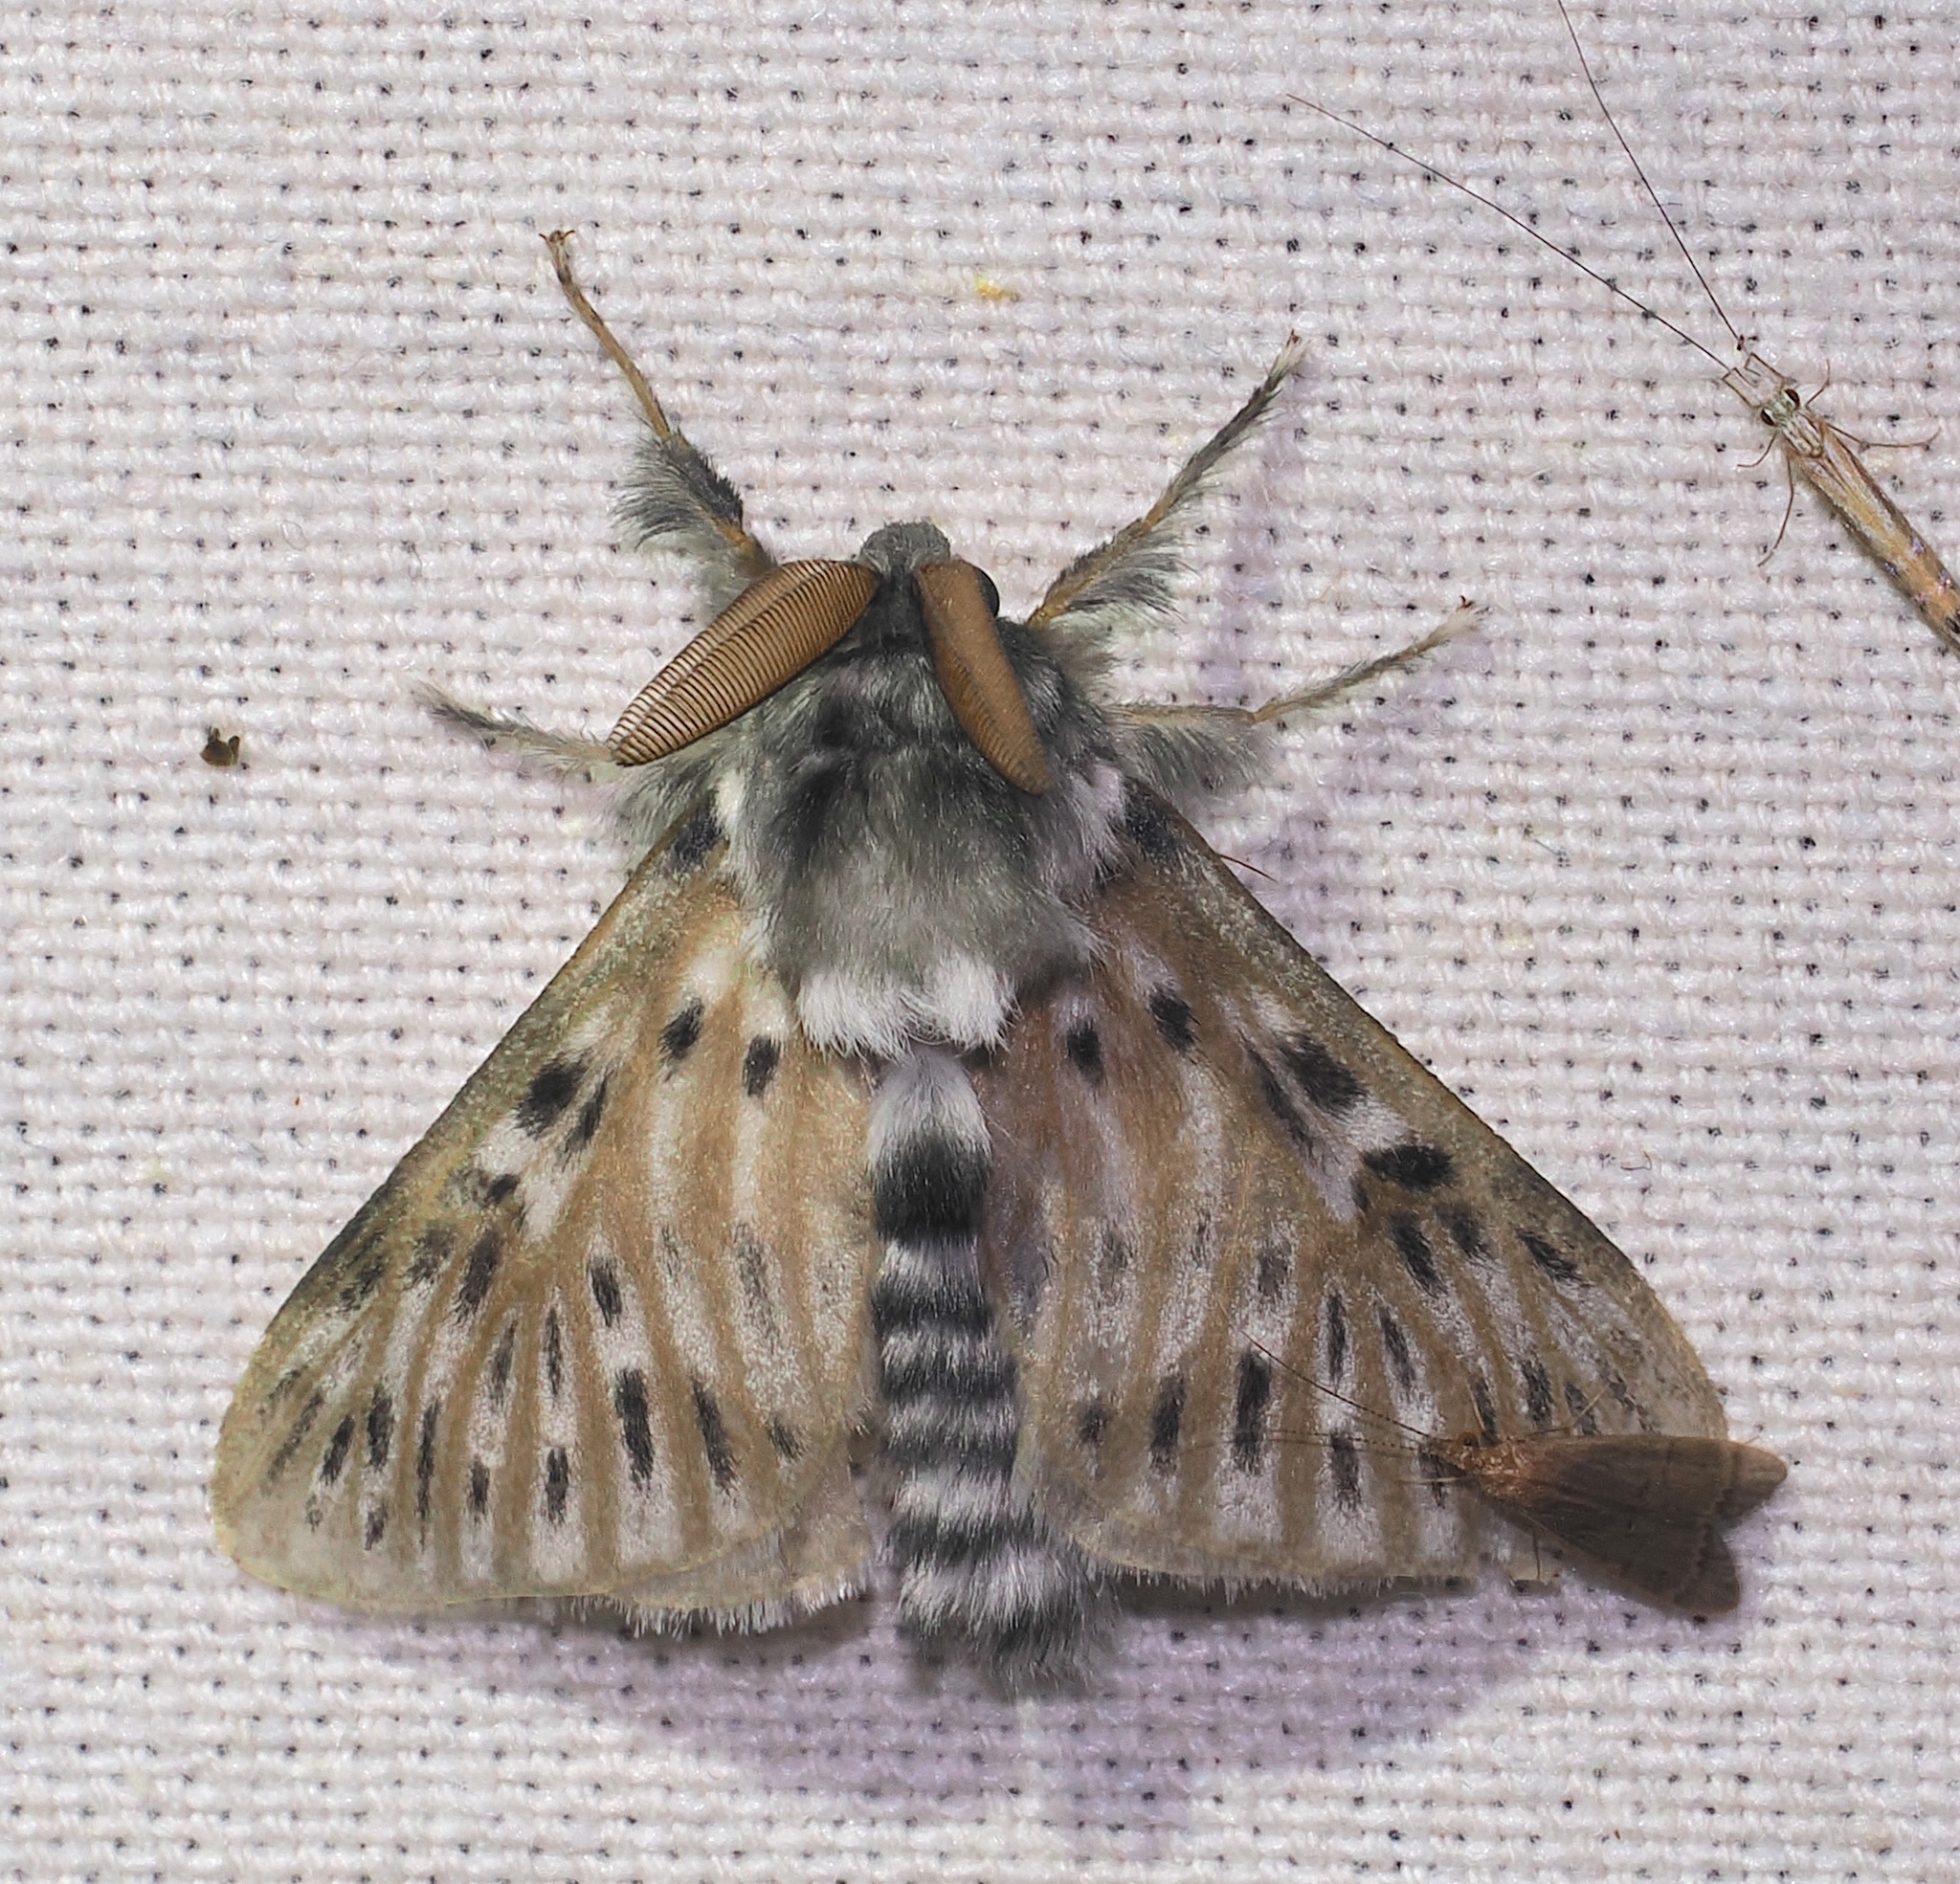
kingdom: Animalia
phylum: Arthropoda
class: Insecta
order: Lepidoptera
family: Megalopygidae
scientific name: Megalopygidae
